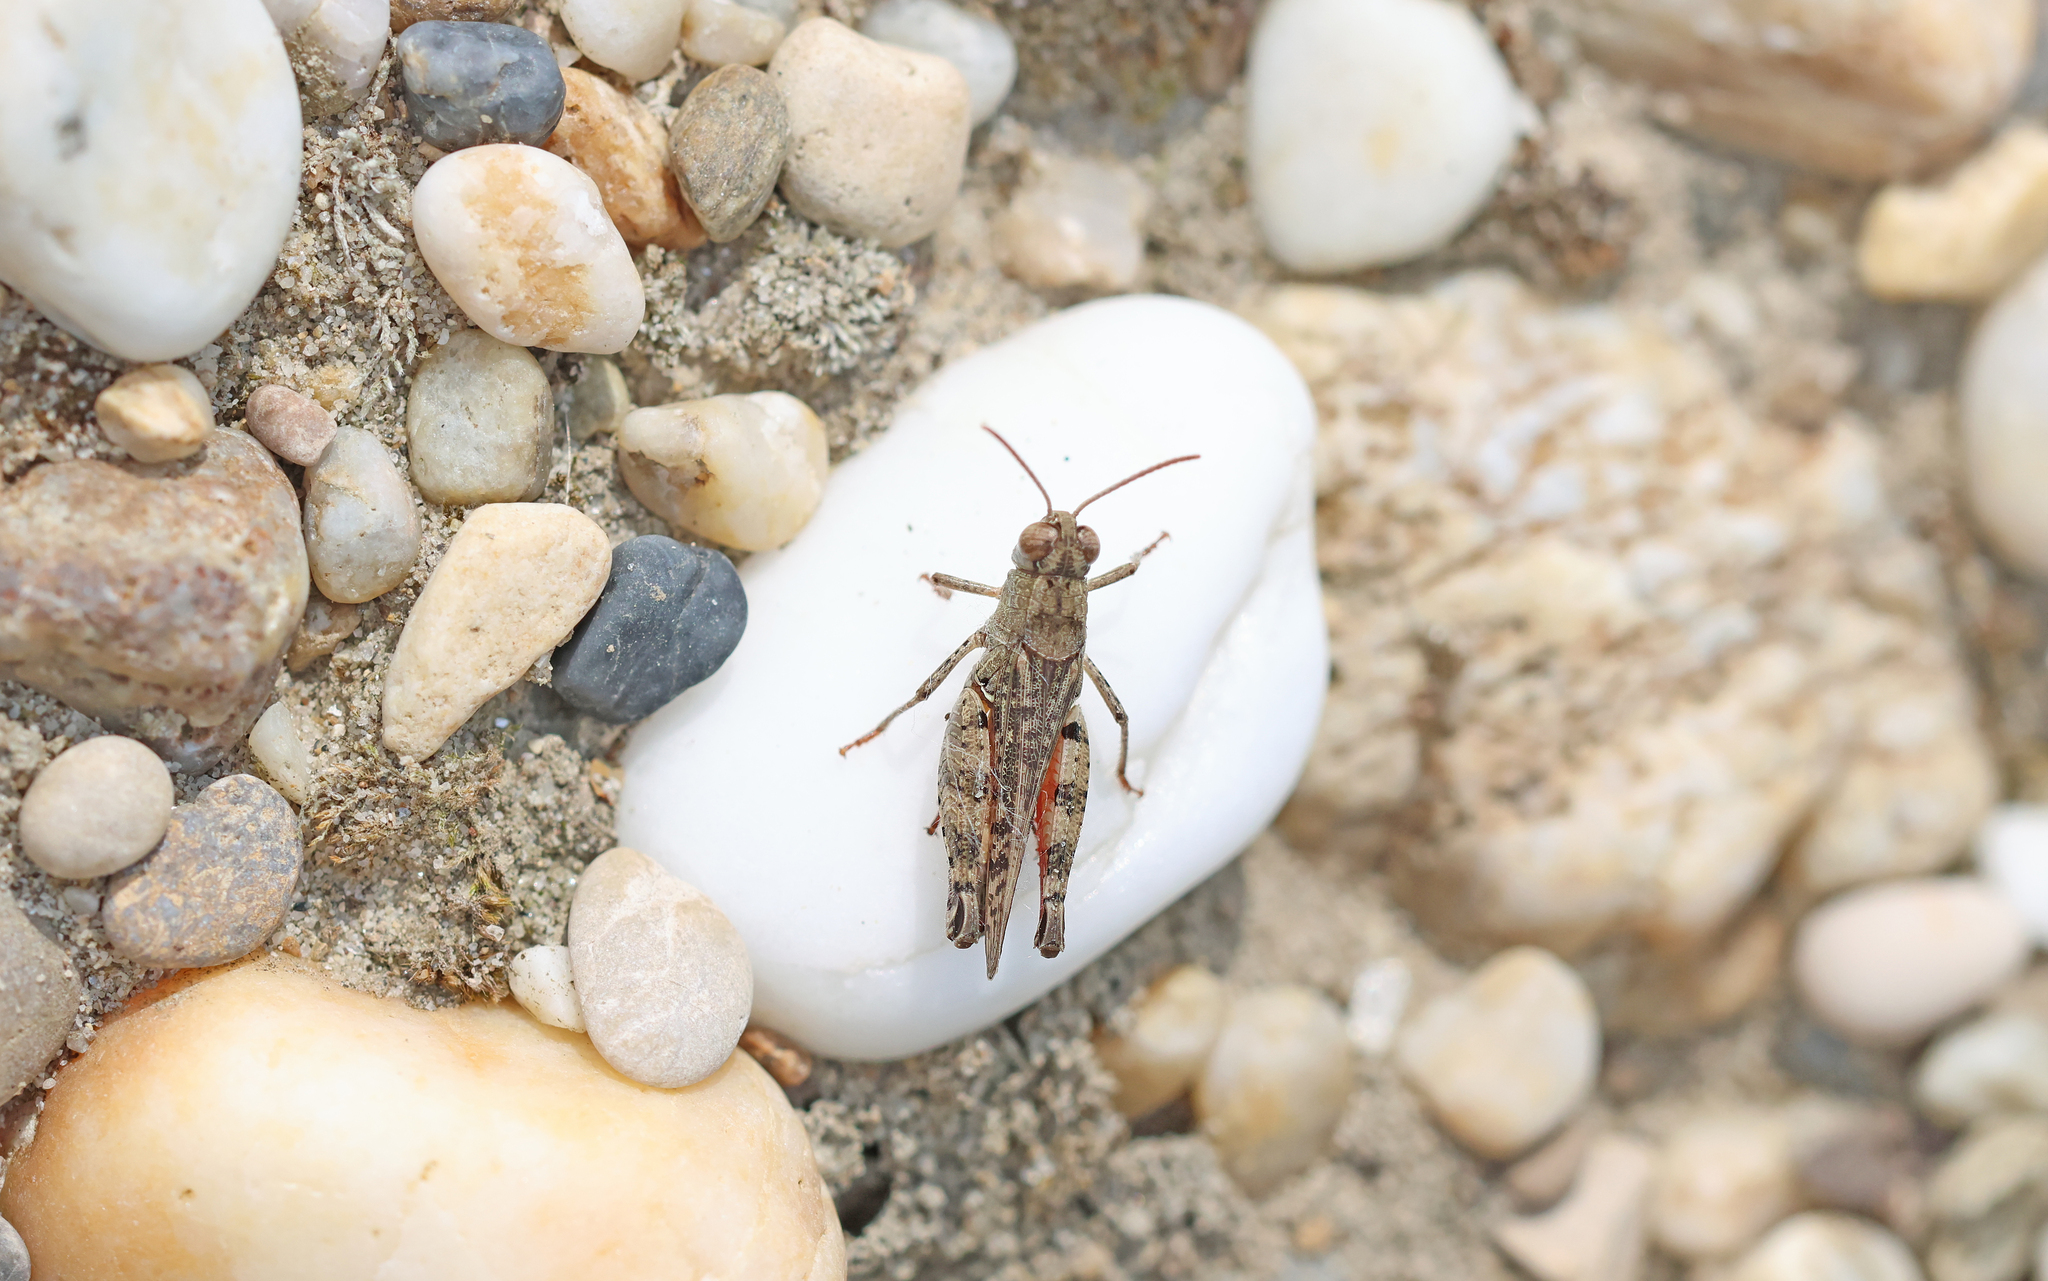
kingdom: Animalia
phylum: Arthropoda
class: Insecta
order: Orthoptera
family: Acrididae
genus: Calliptamus
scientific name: Calliptamus italicus
